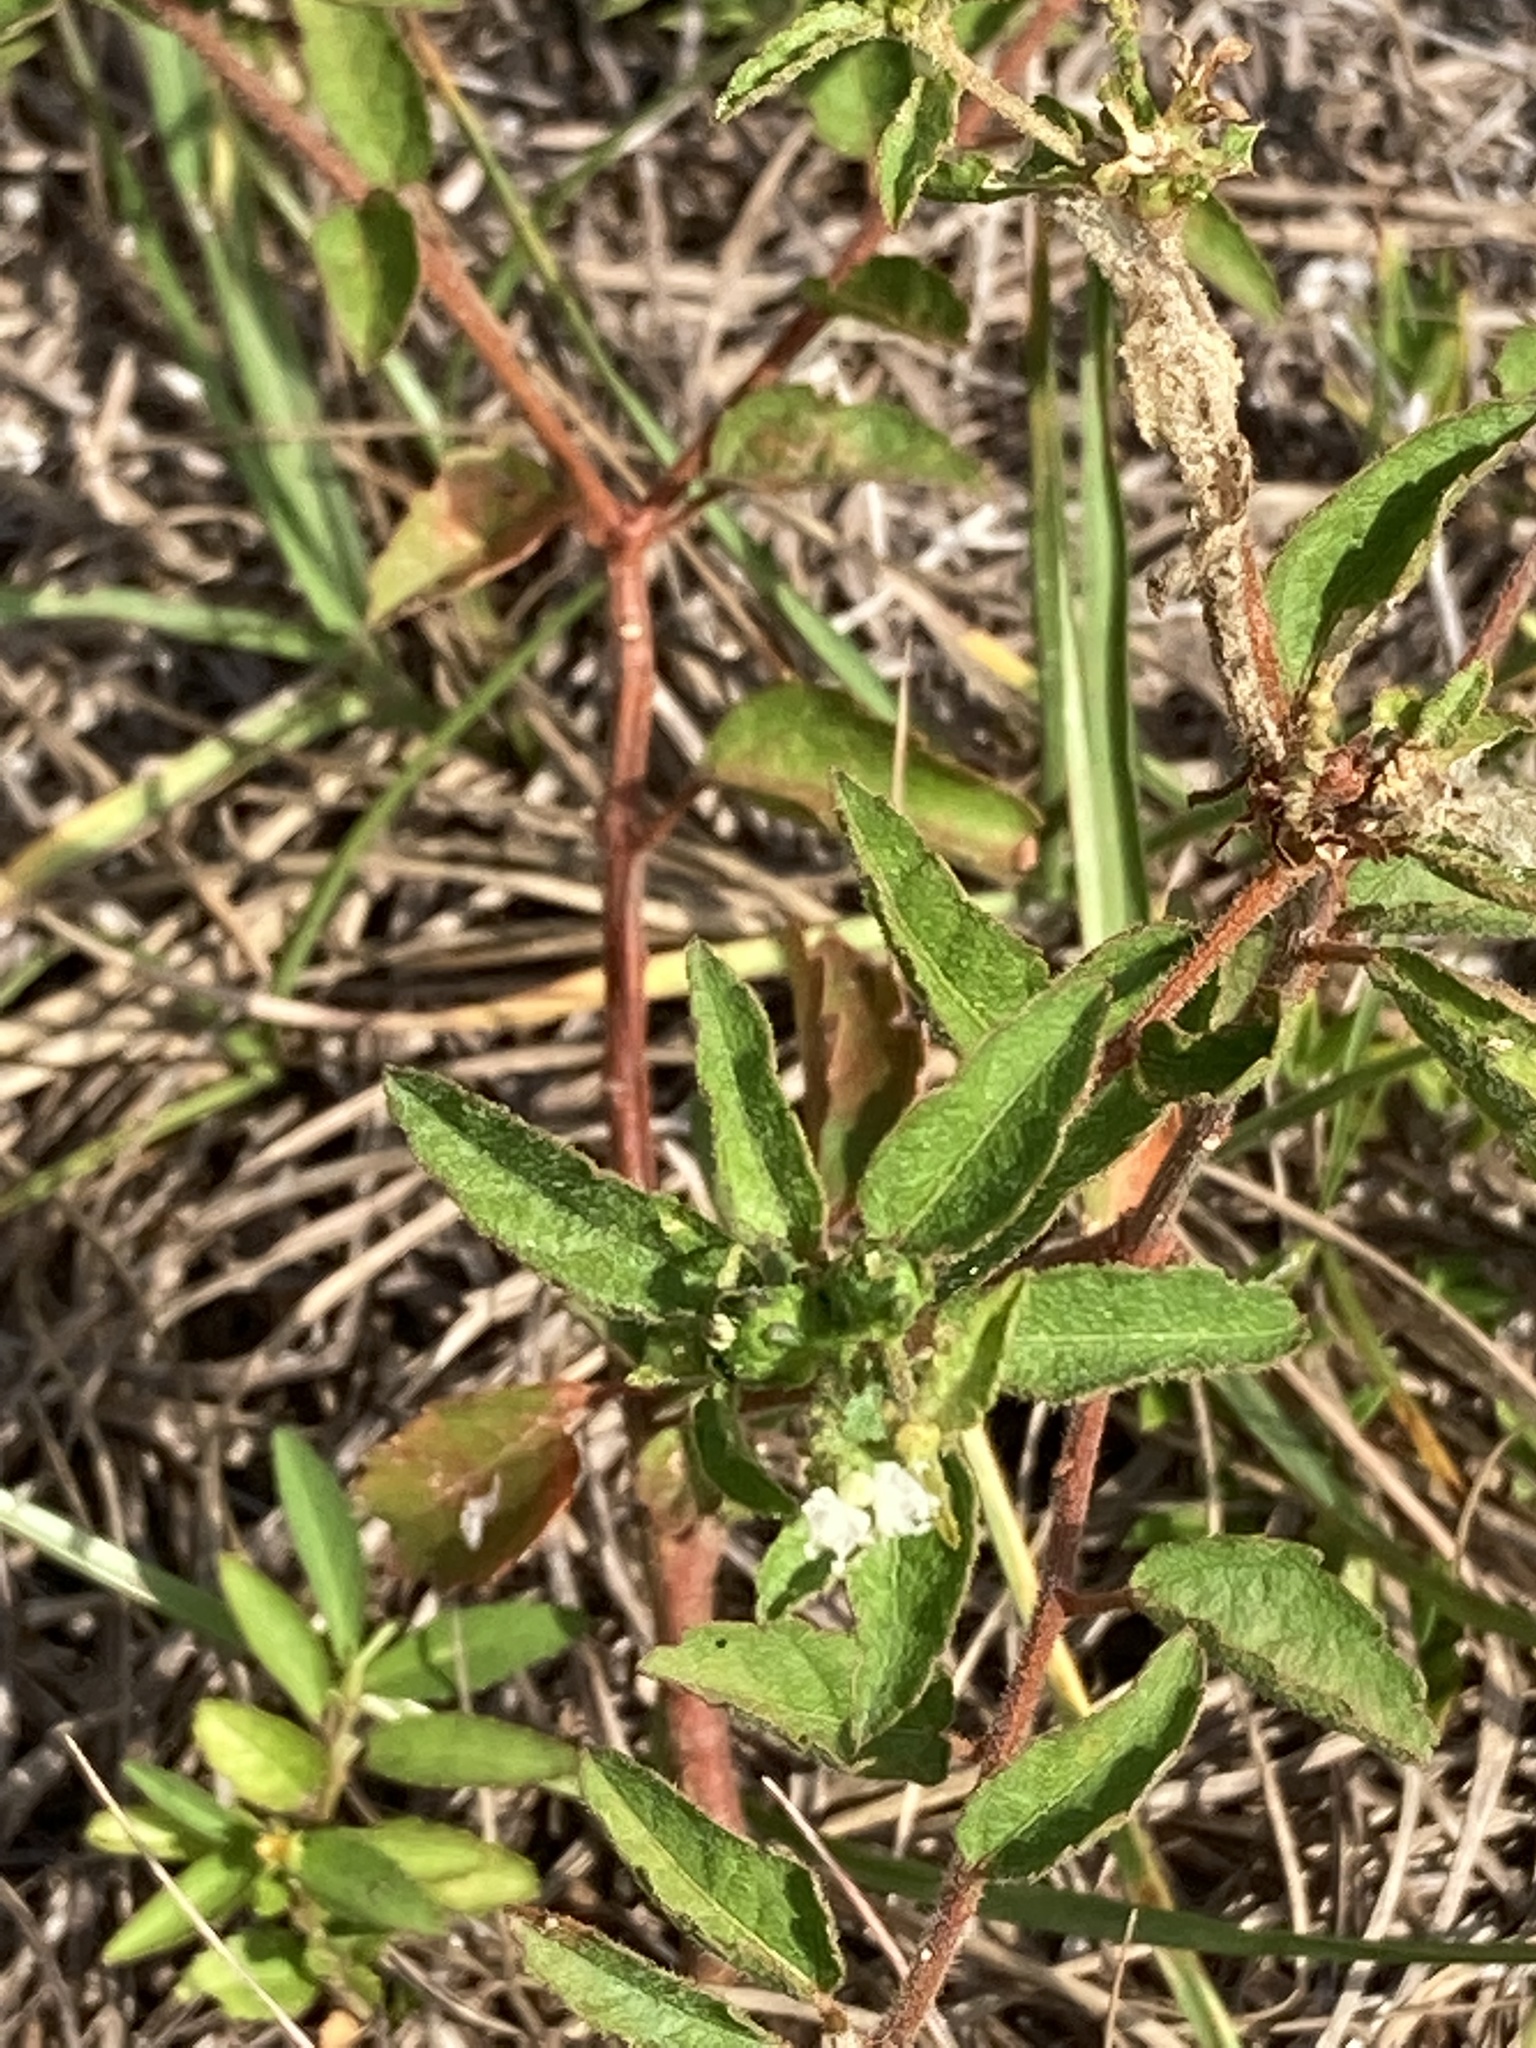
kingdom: Plantae
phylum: Tracheophyta
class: Magnoliopsida
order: Malpighiales
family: Euphorbiaceae
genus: Croton
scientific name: Croton glandulosus
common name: Tropic croton
